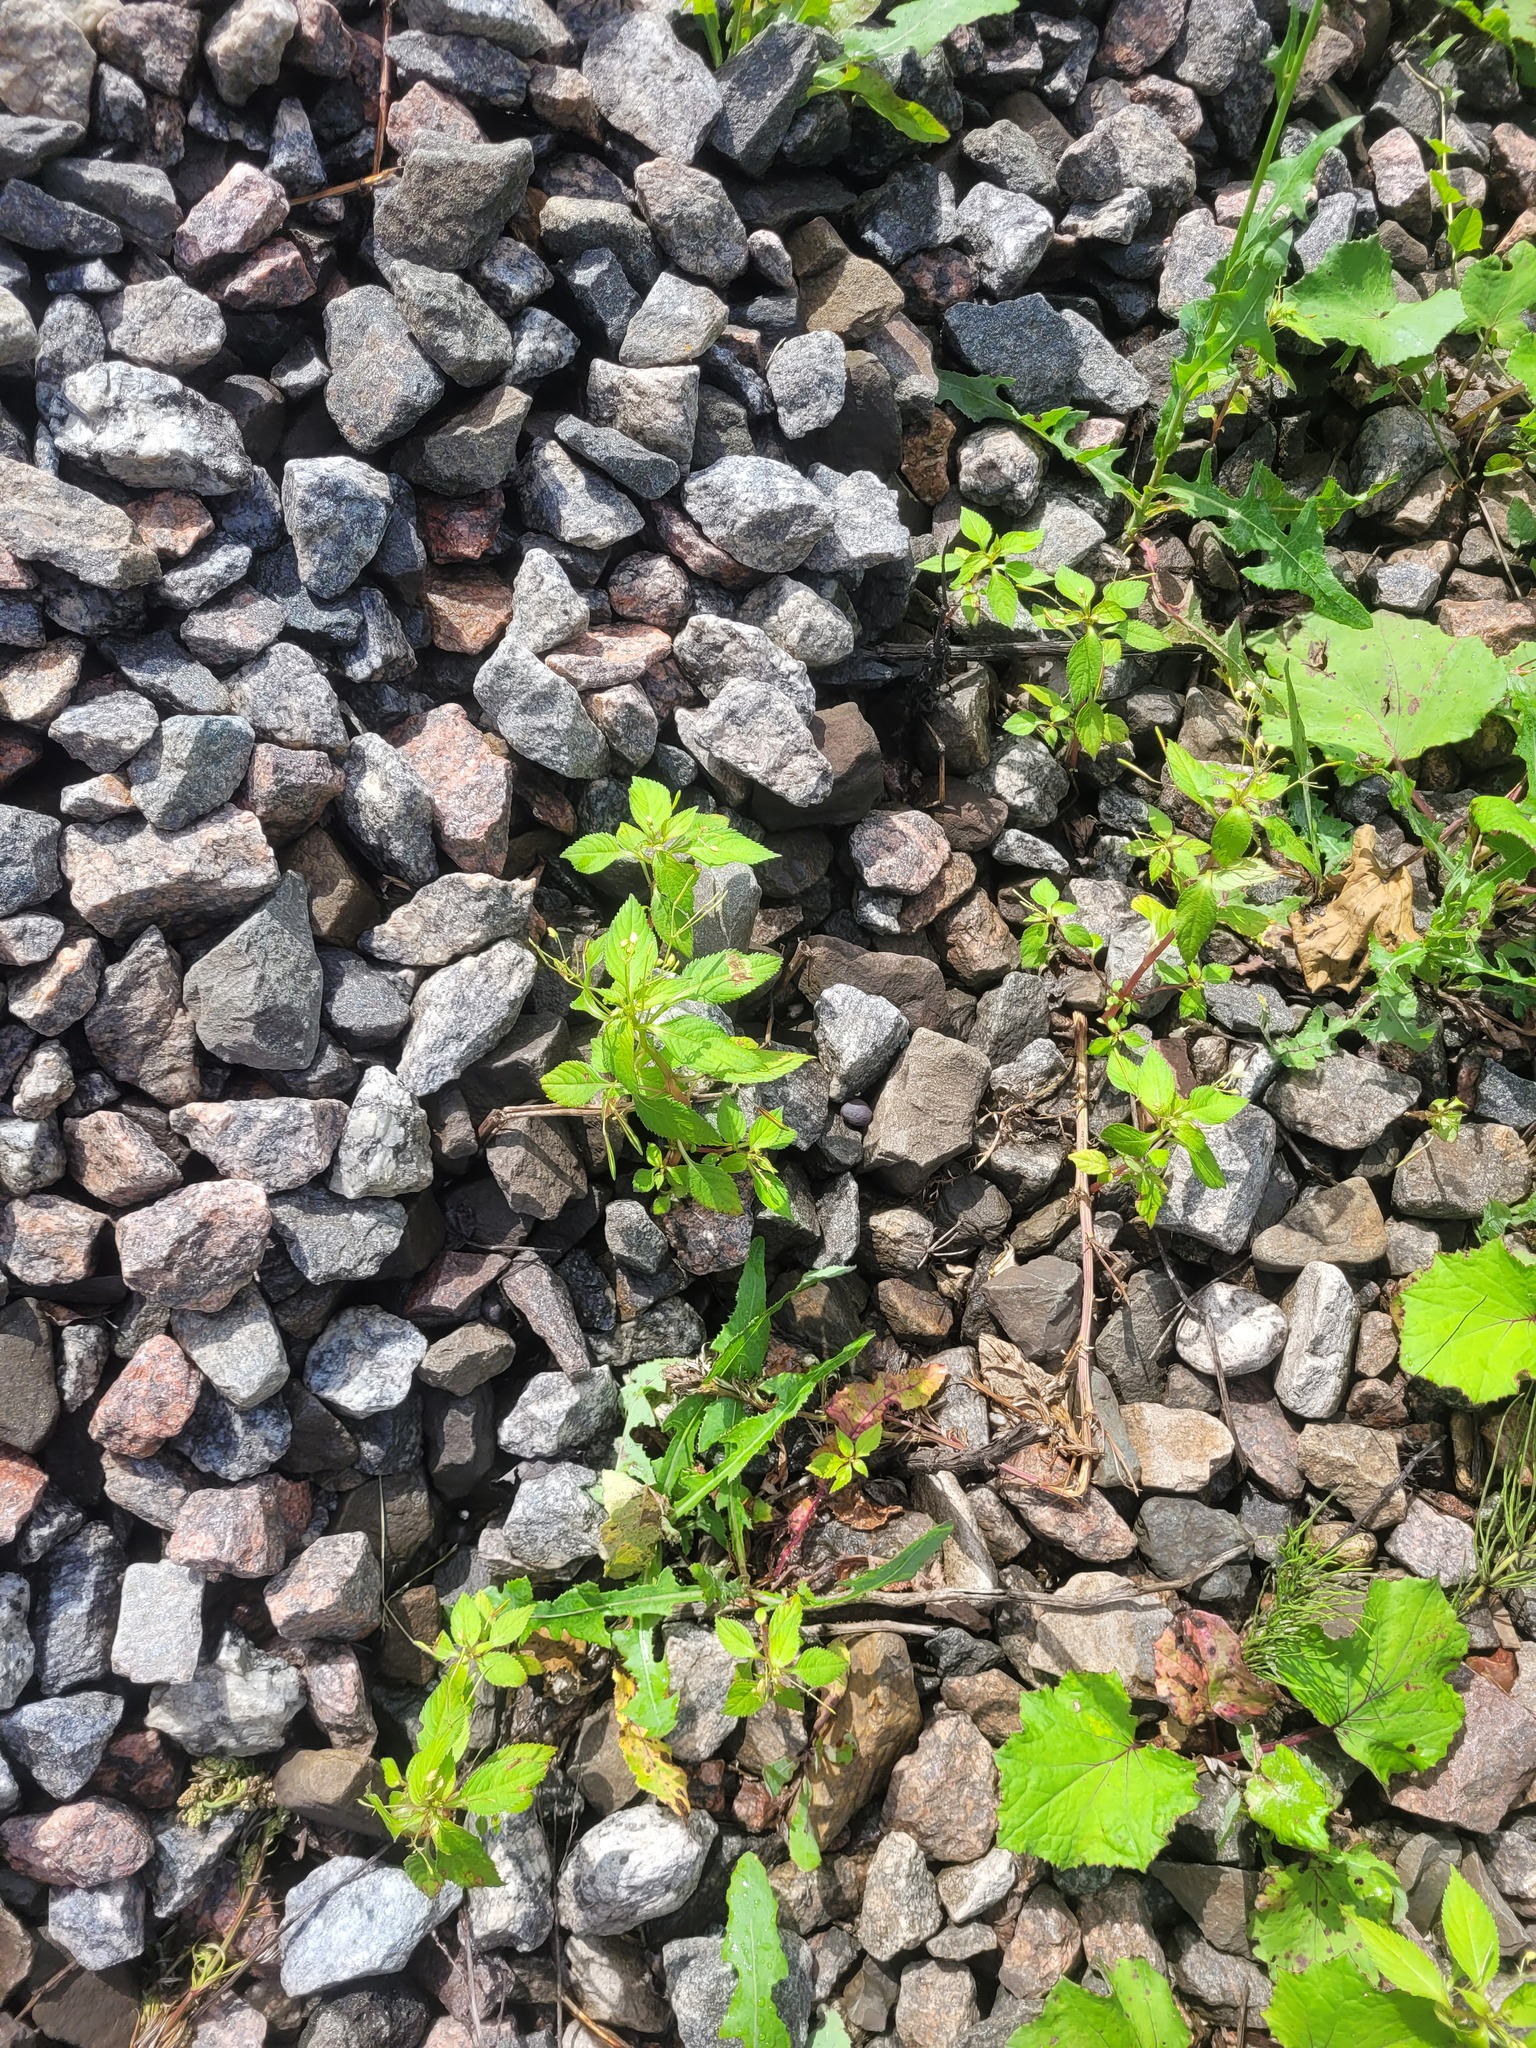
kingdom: Plantae
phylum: Tracheophyta
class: Magnoliopsida
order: Ericales
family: Balsaminaceae
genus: Impatiens
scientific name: Impatiens parviflora
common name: Small balsam
